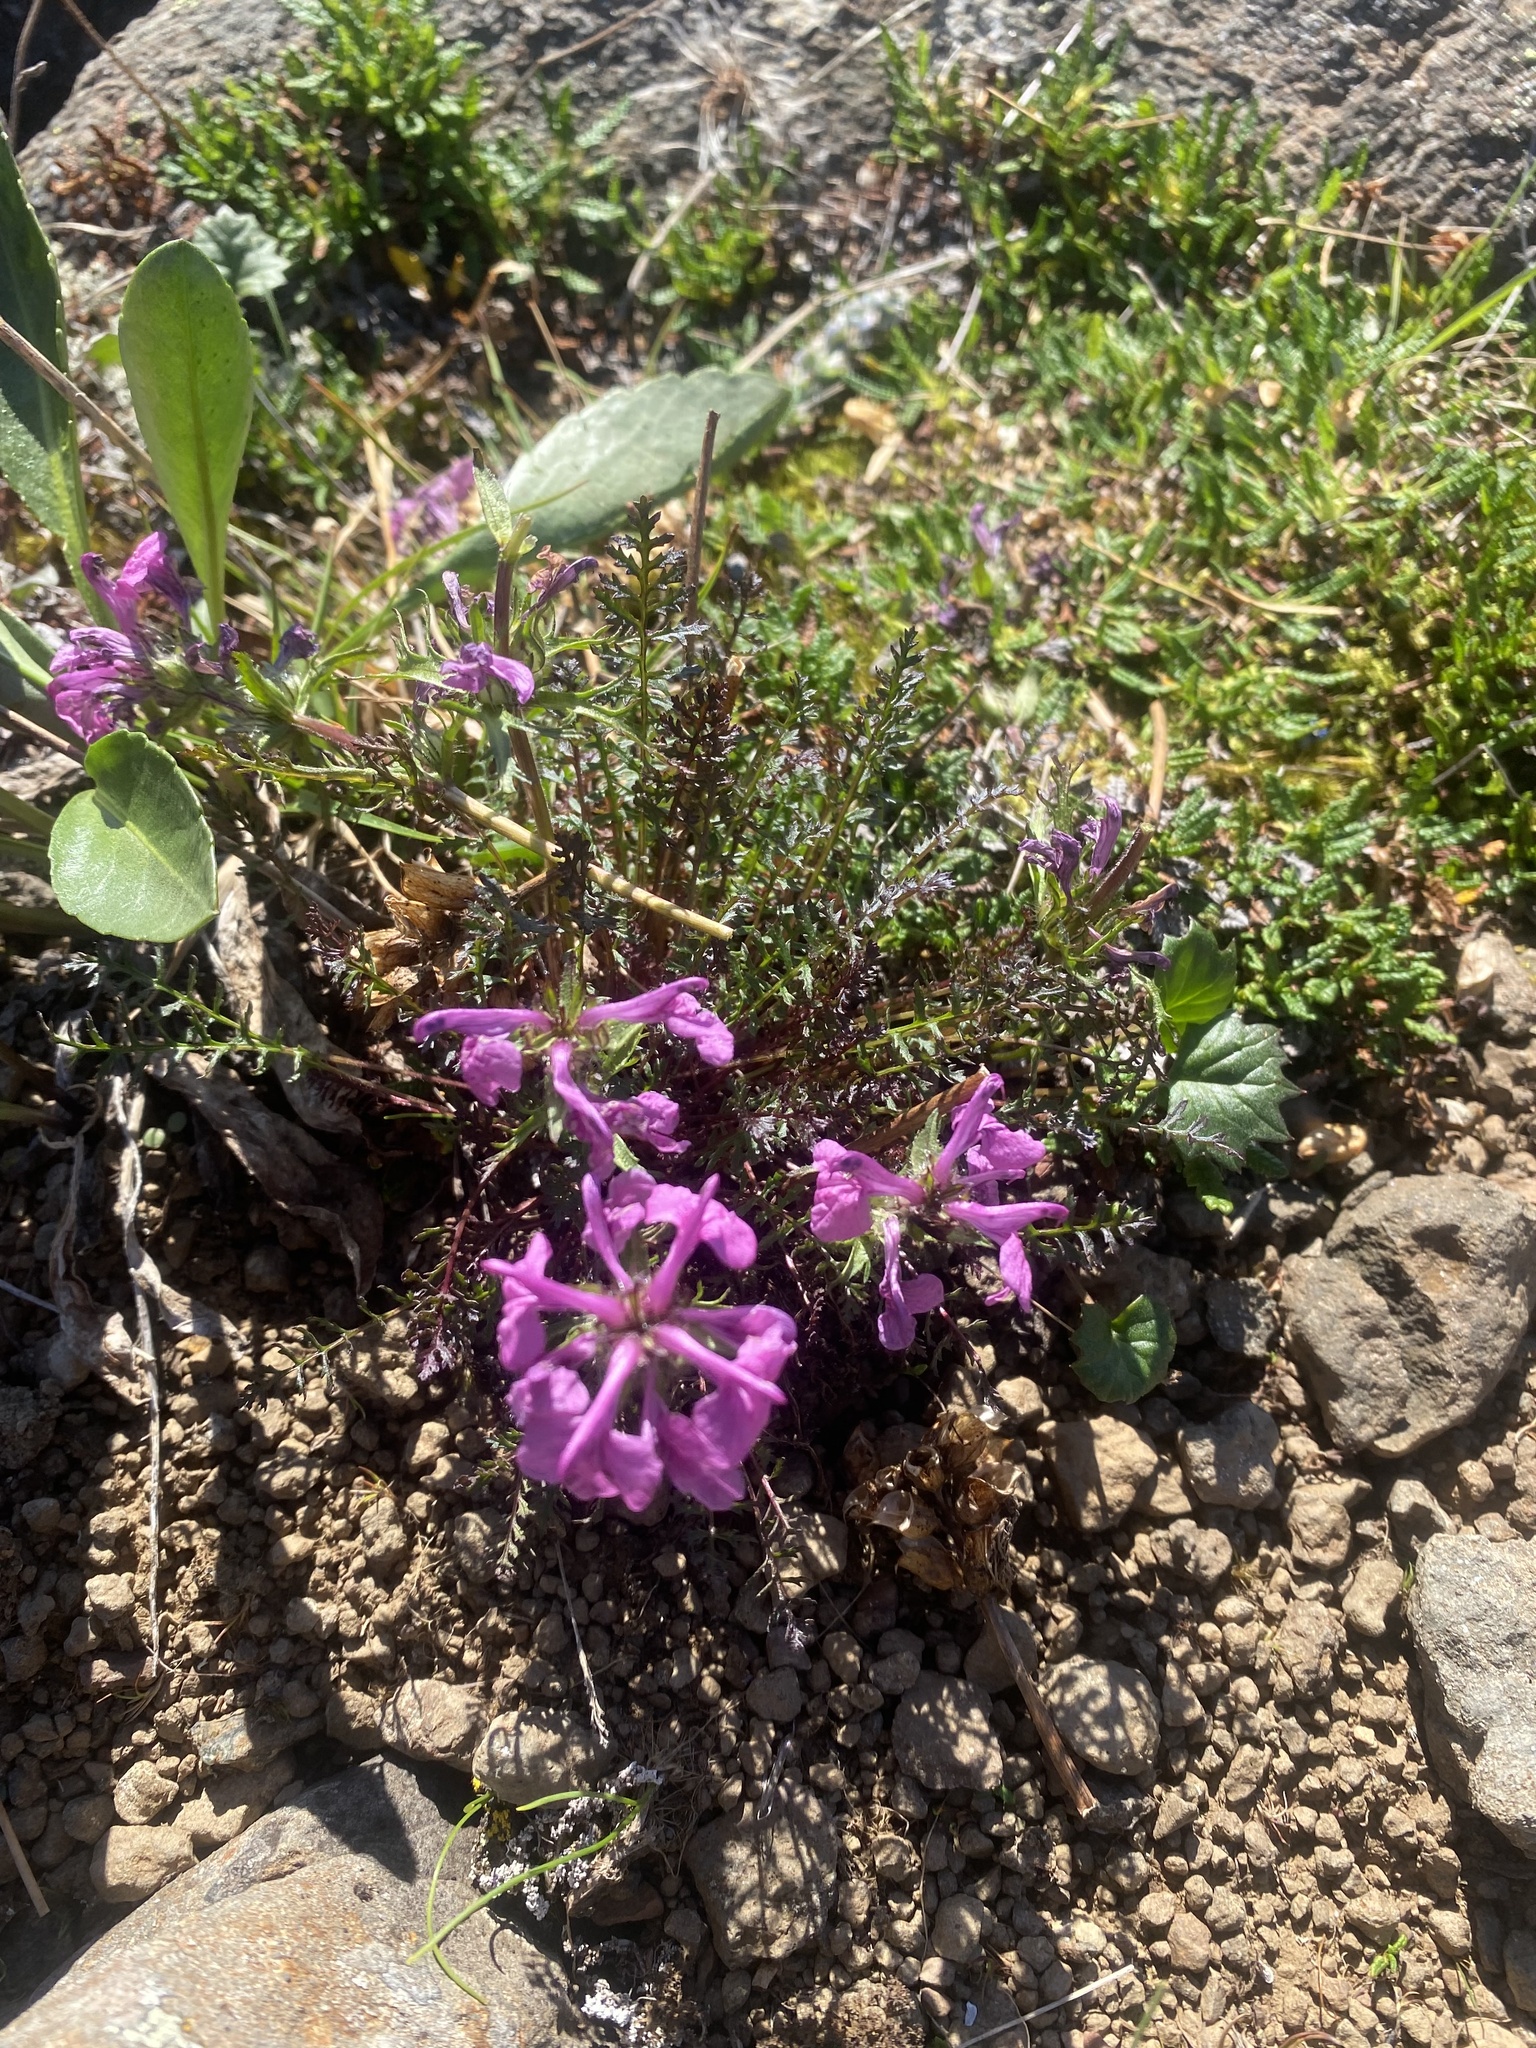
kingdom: Plantae
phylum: Tracheophyta
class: Magnoliopsida
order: Lamiales
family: Orobanchaceae
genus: Pedicularis
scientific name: Pedicularis amoena
